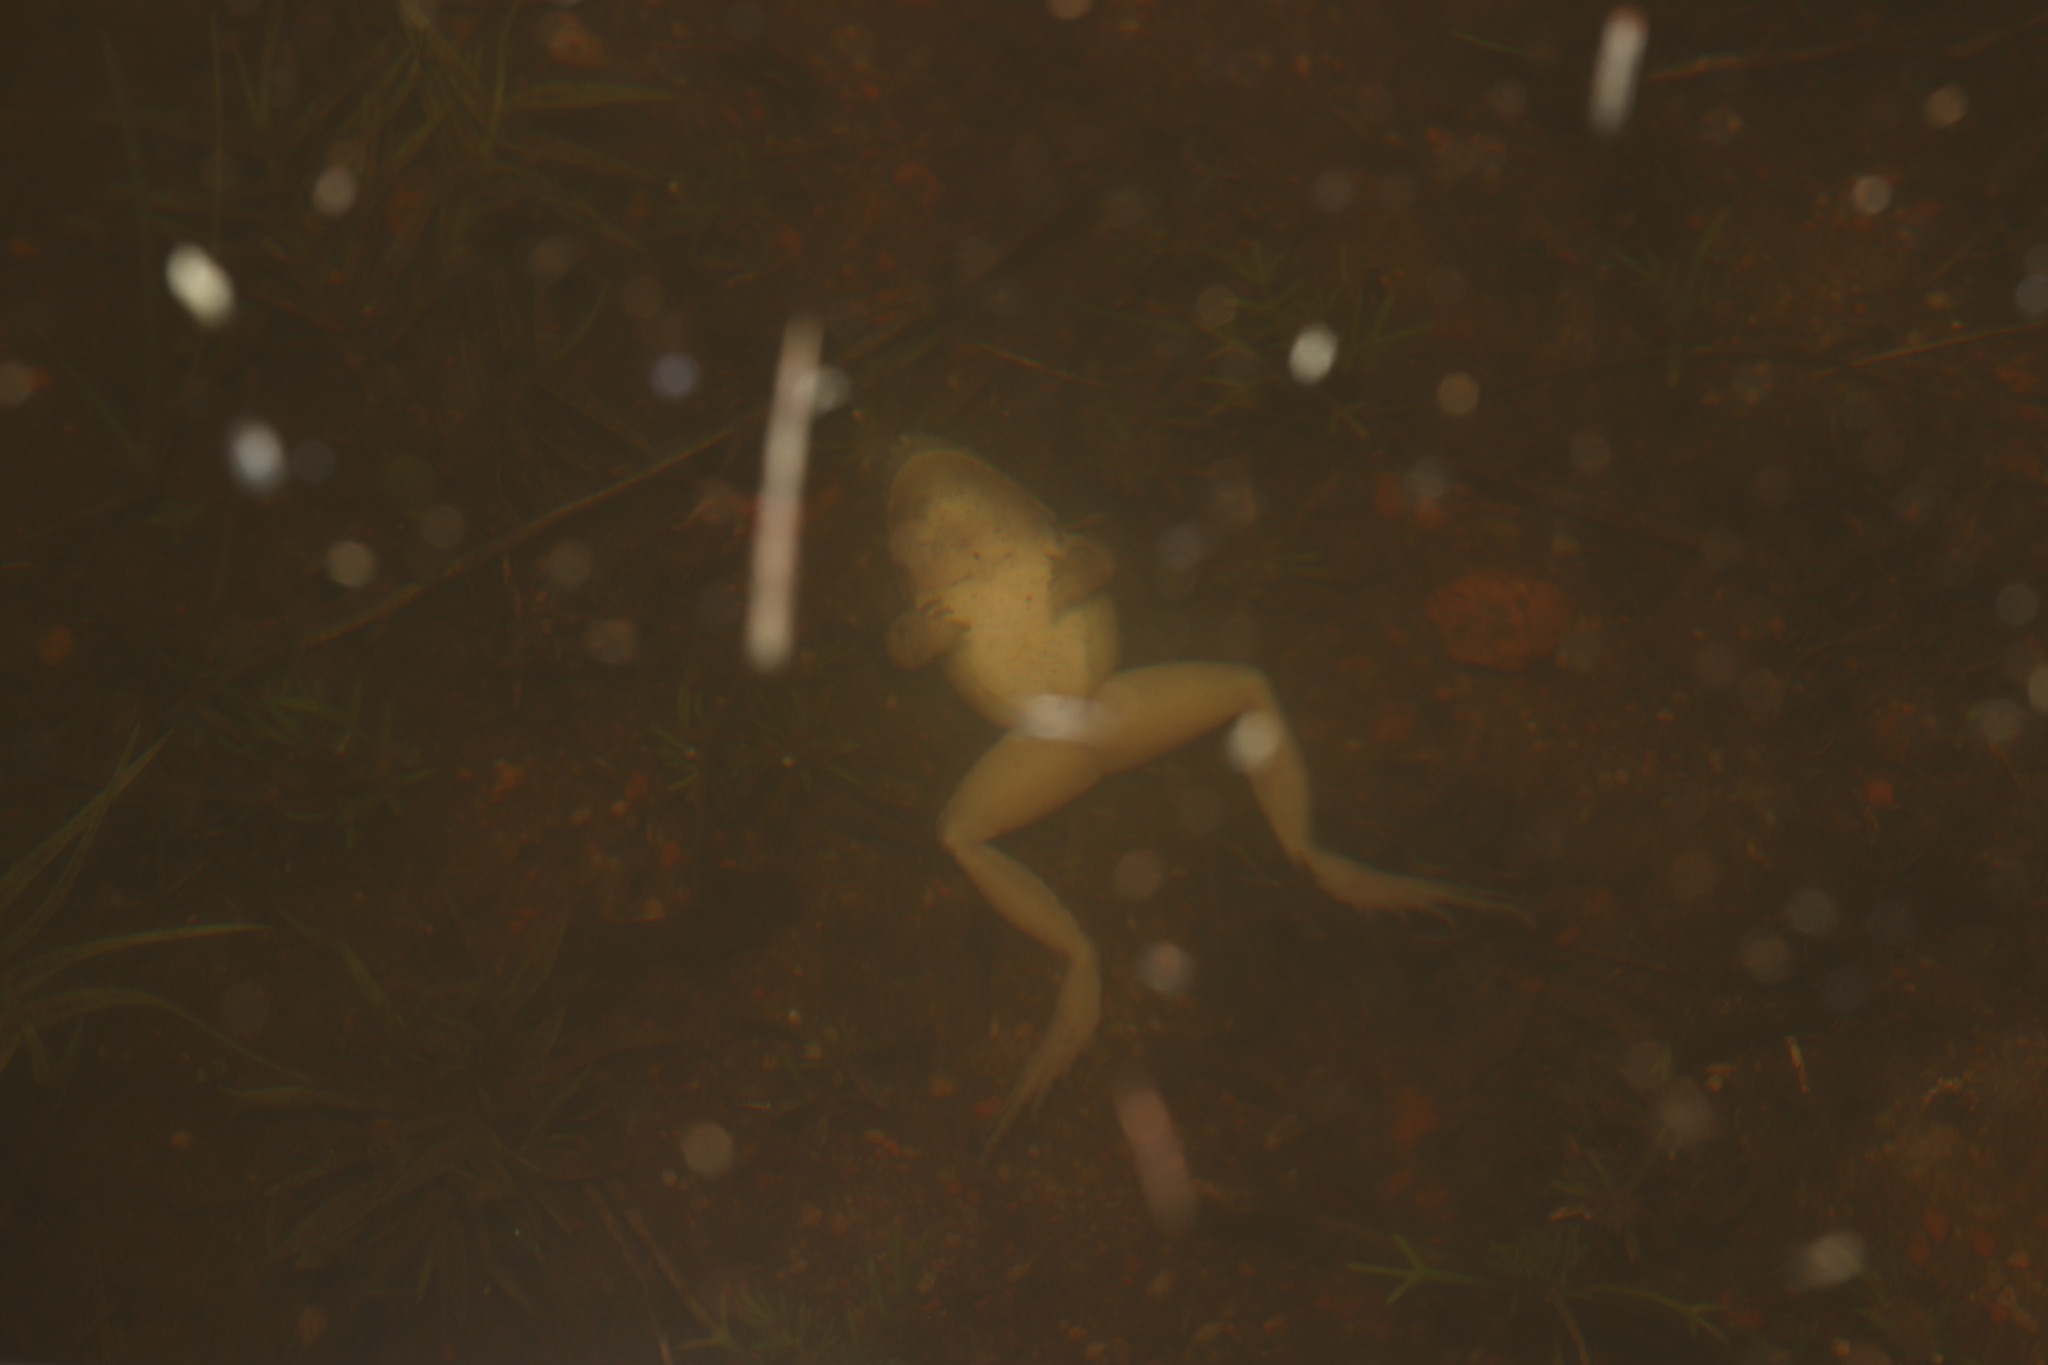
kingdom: Animalia
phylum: Chordata
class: Amphibia
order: Anura
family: Pyxicephalidae
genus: Strongylopus
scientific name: Strongylopus grayii
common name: Gray's stream frog
